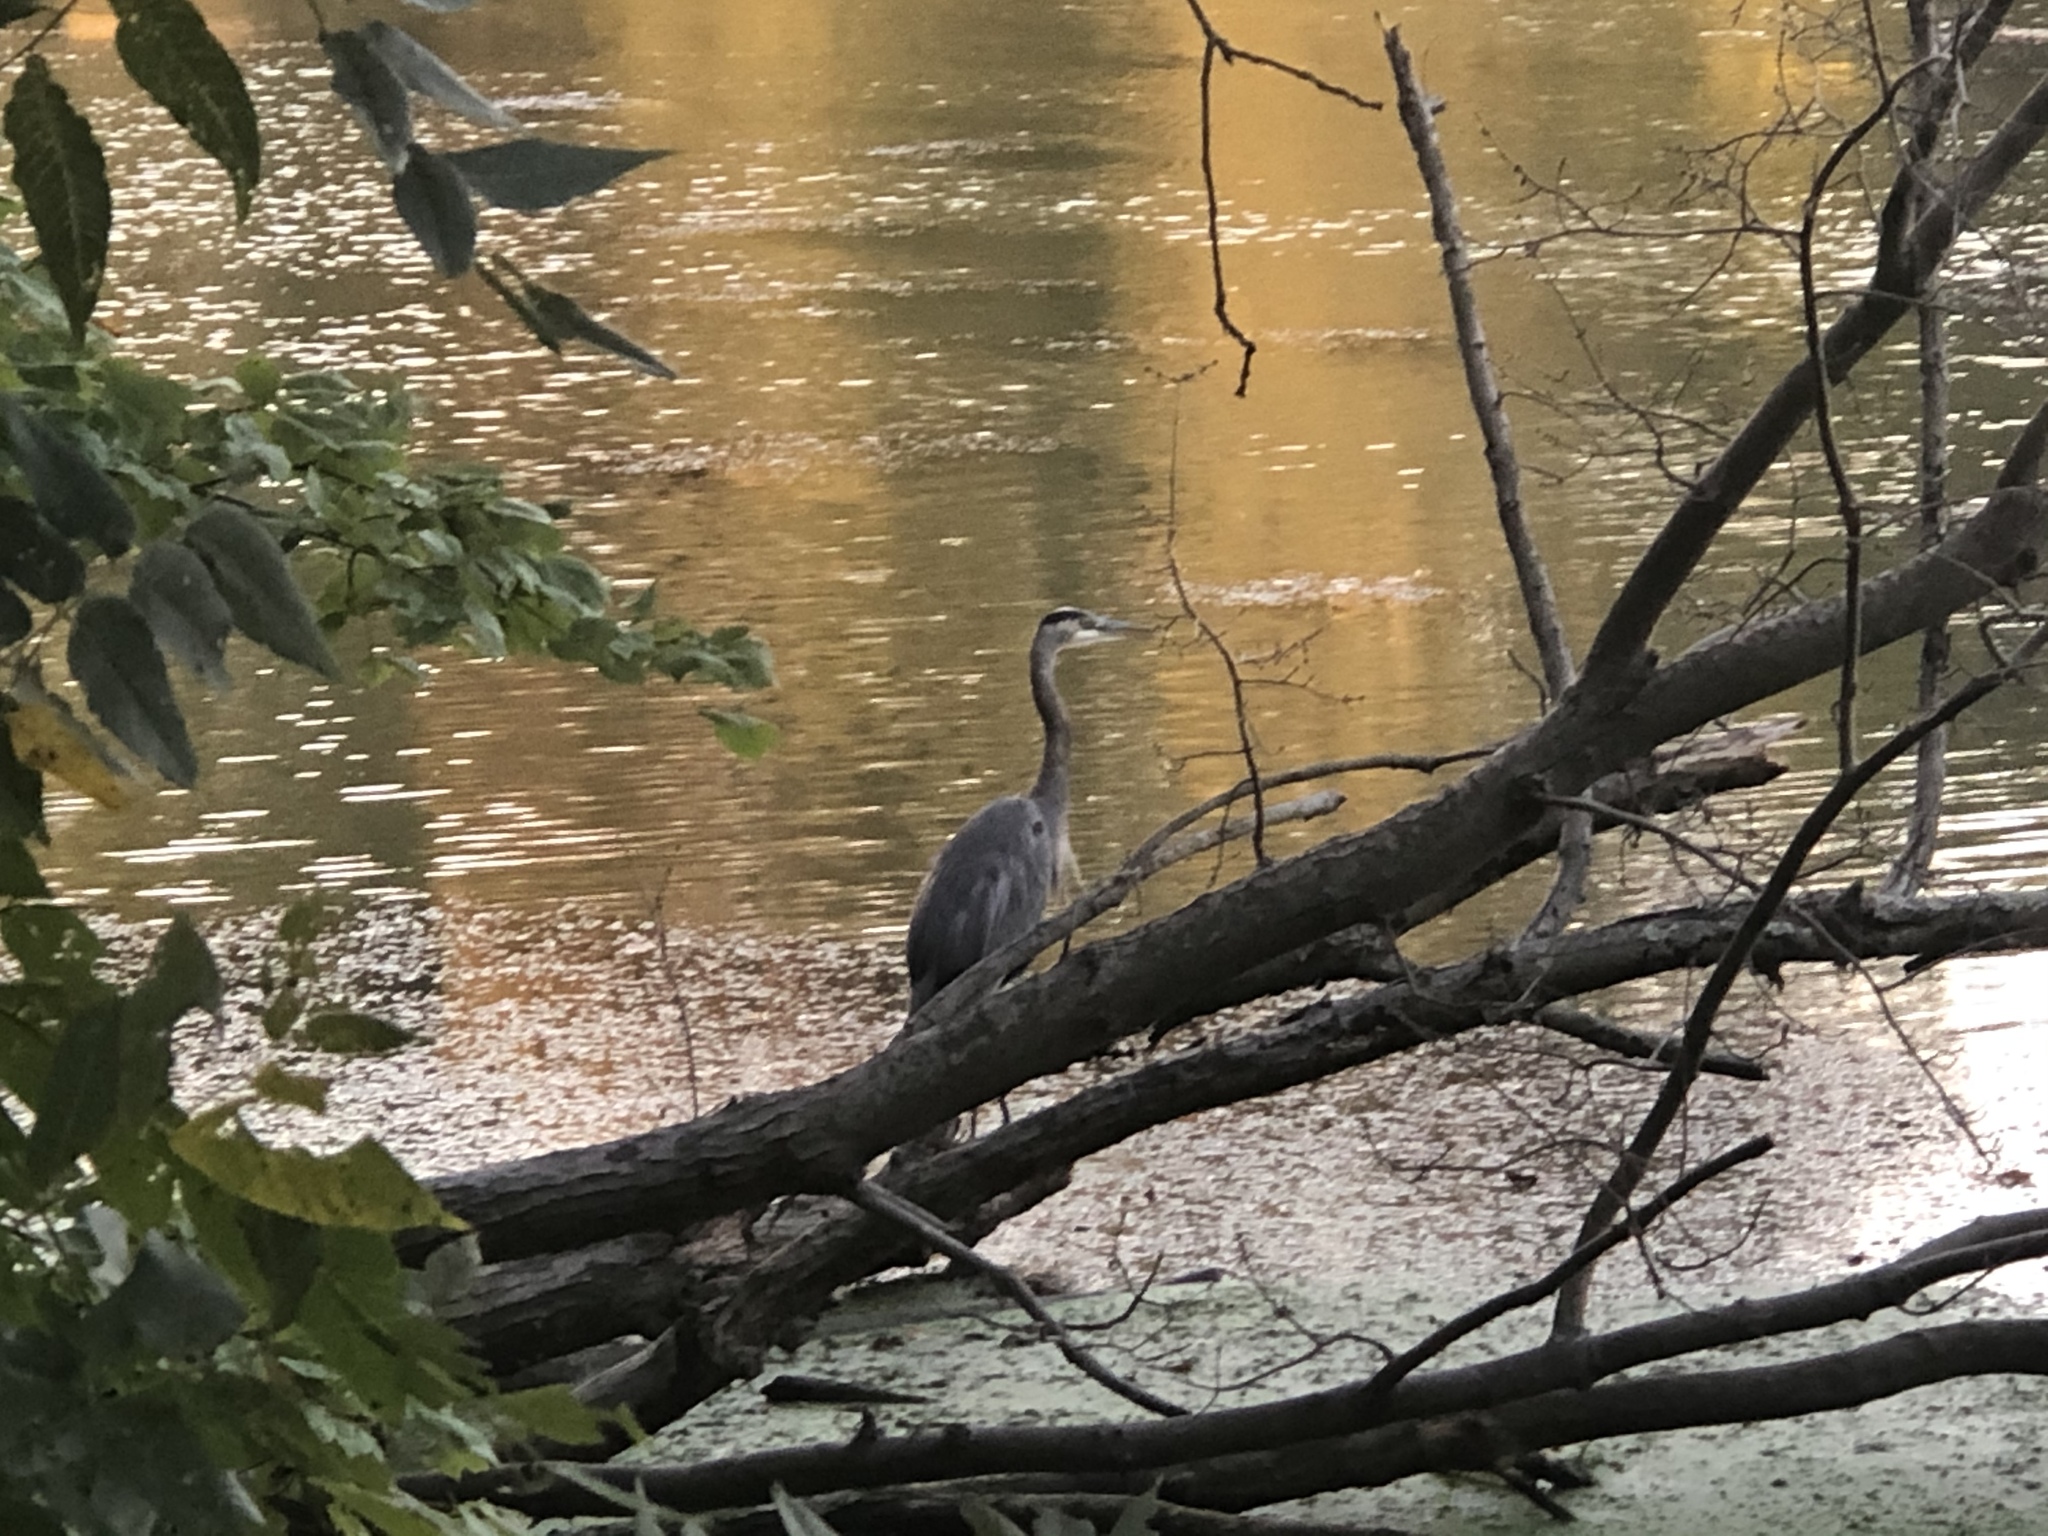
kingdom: Animalia
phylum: Chordata
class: Aves
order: Pelecaniformes
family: Ardeidae
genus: Ardea
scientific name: Ardea herodias
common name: Great blue heron
